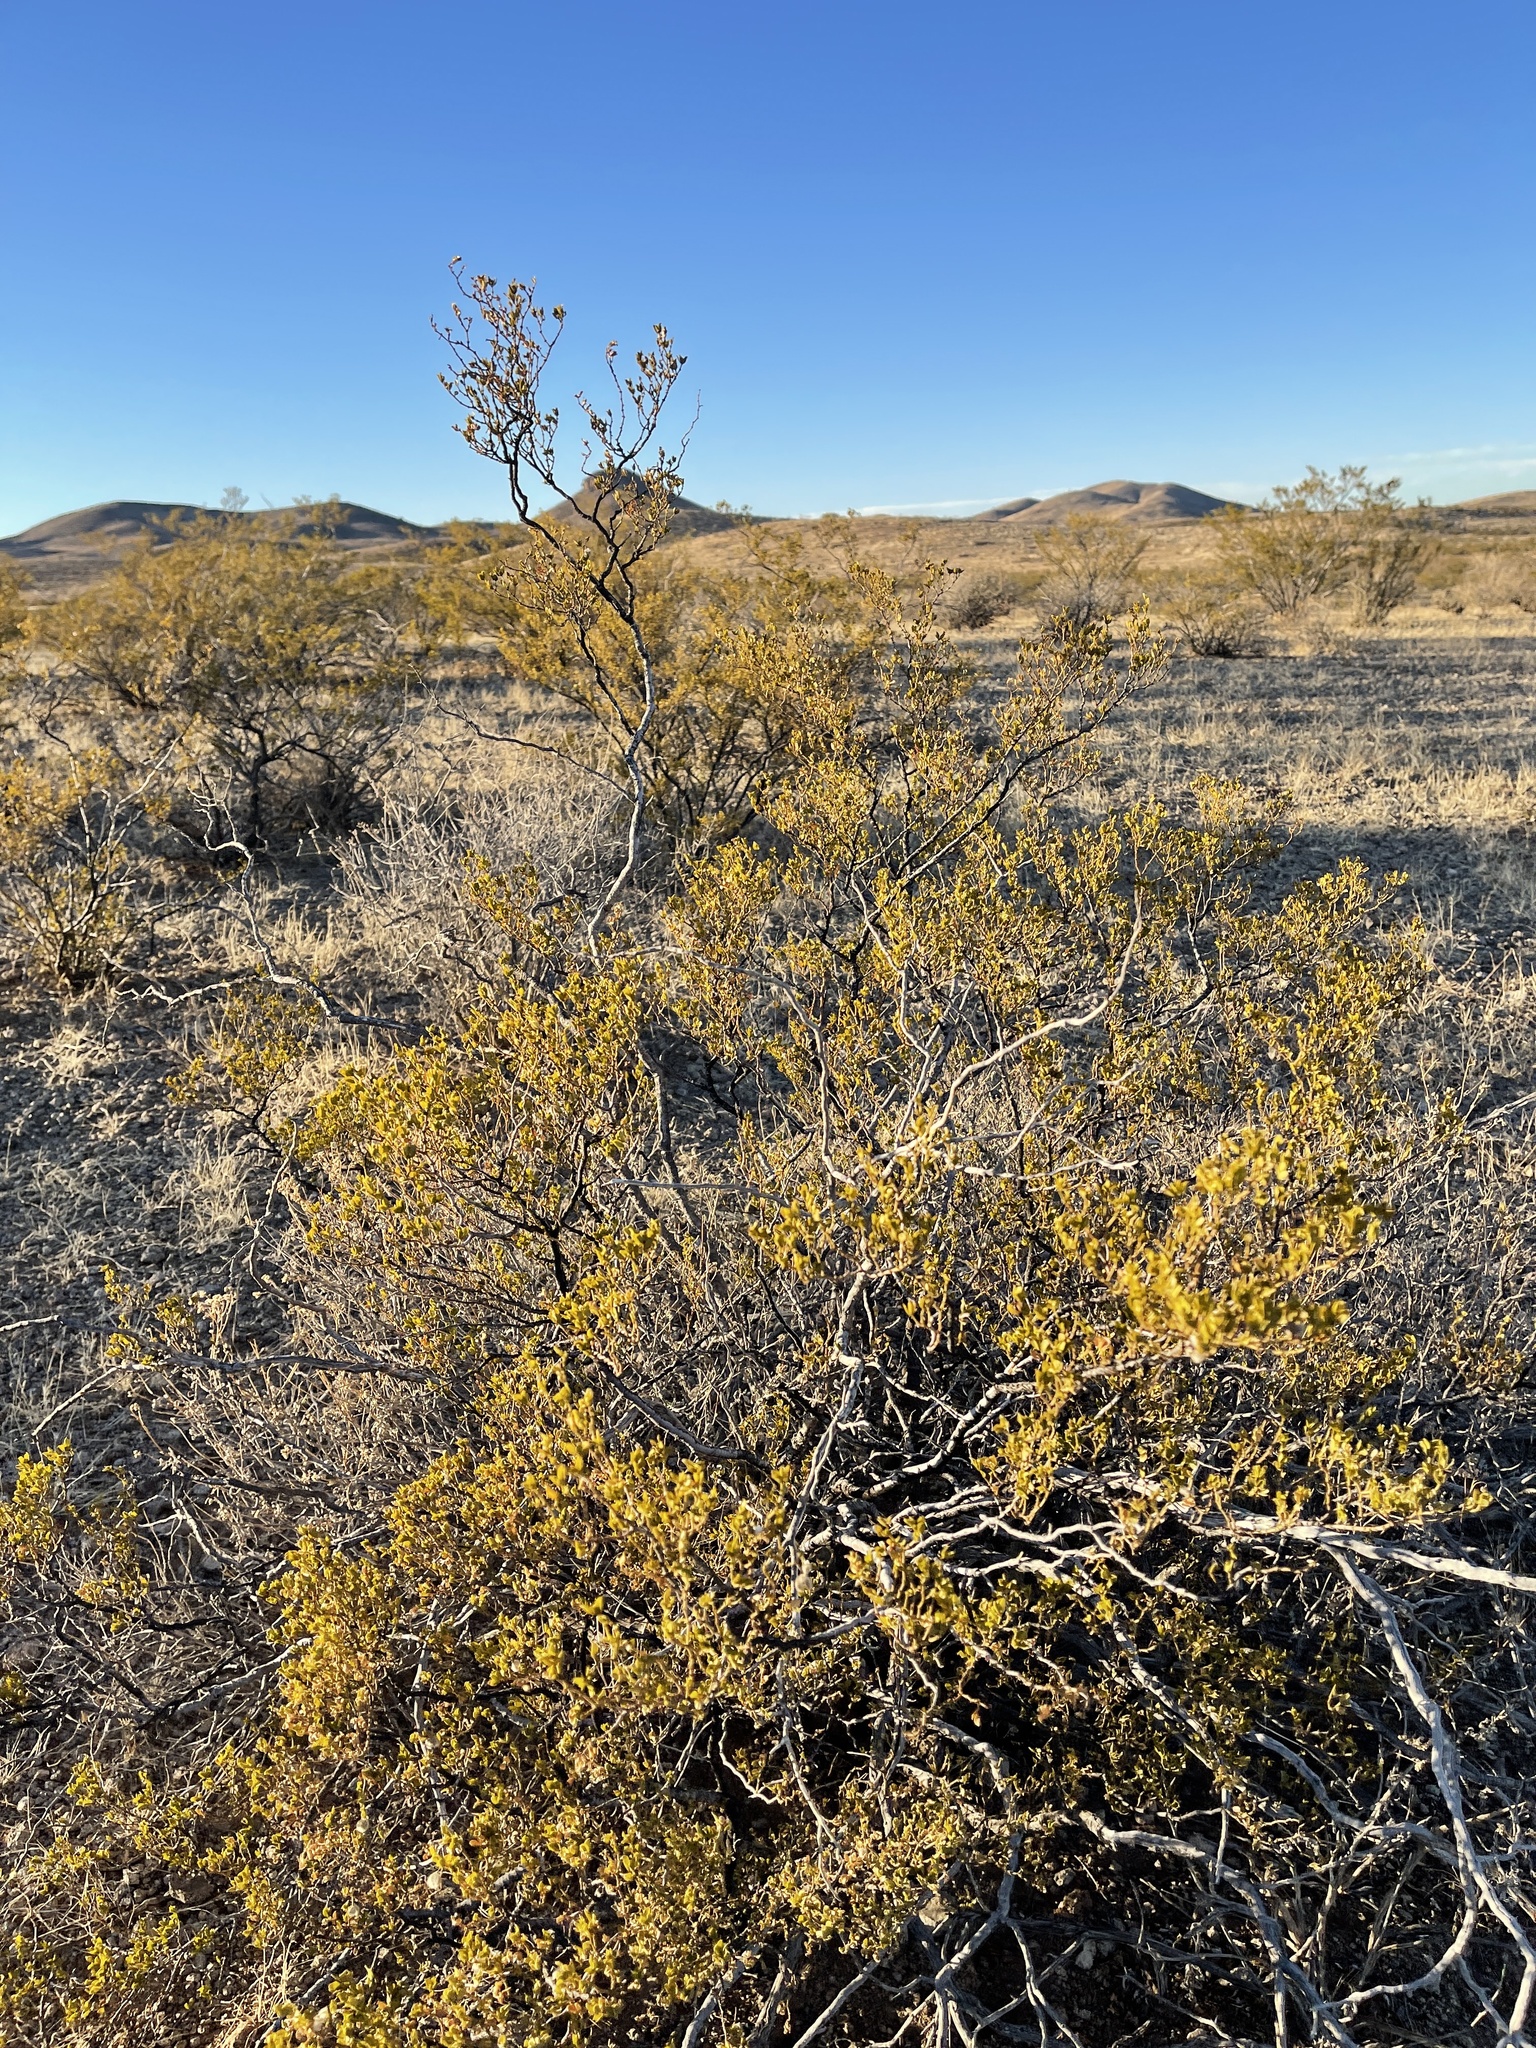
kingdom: Plantae
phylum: Tracheophyta
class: Magnoliopsida
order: Zygophyllales
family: Zygophyllaceae
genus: Larrea
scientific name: Larrea tridentata
